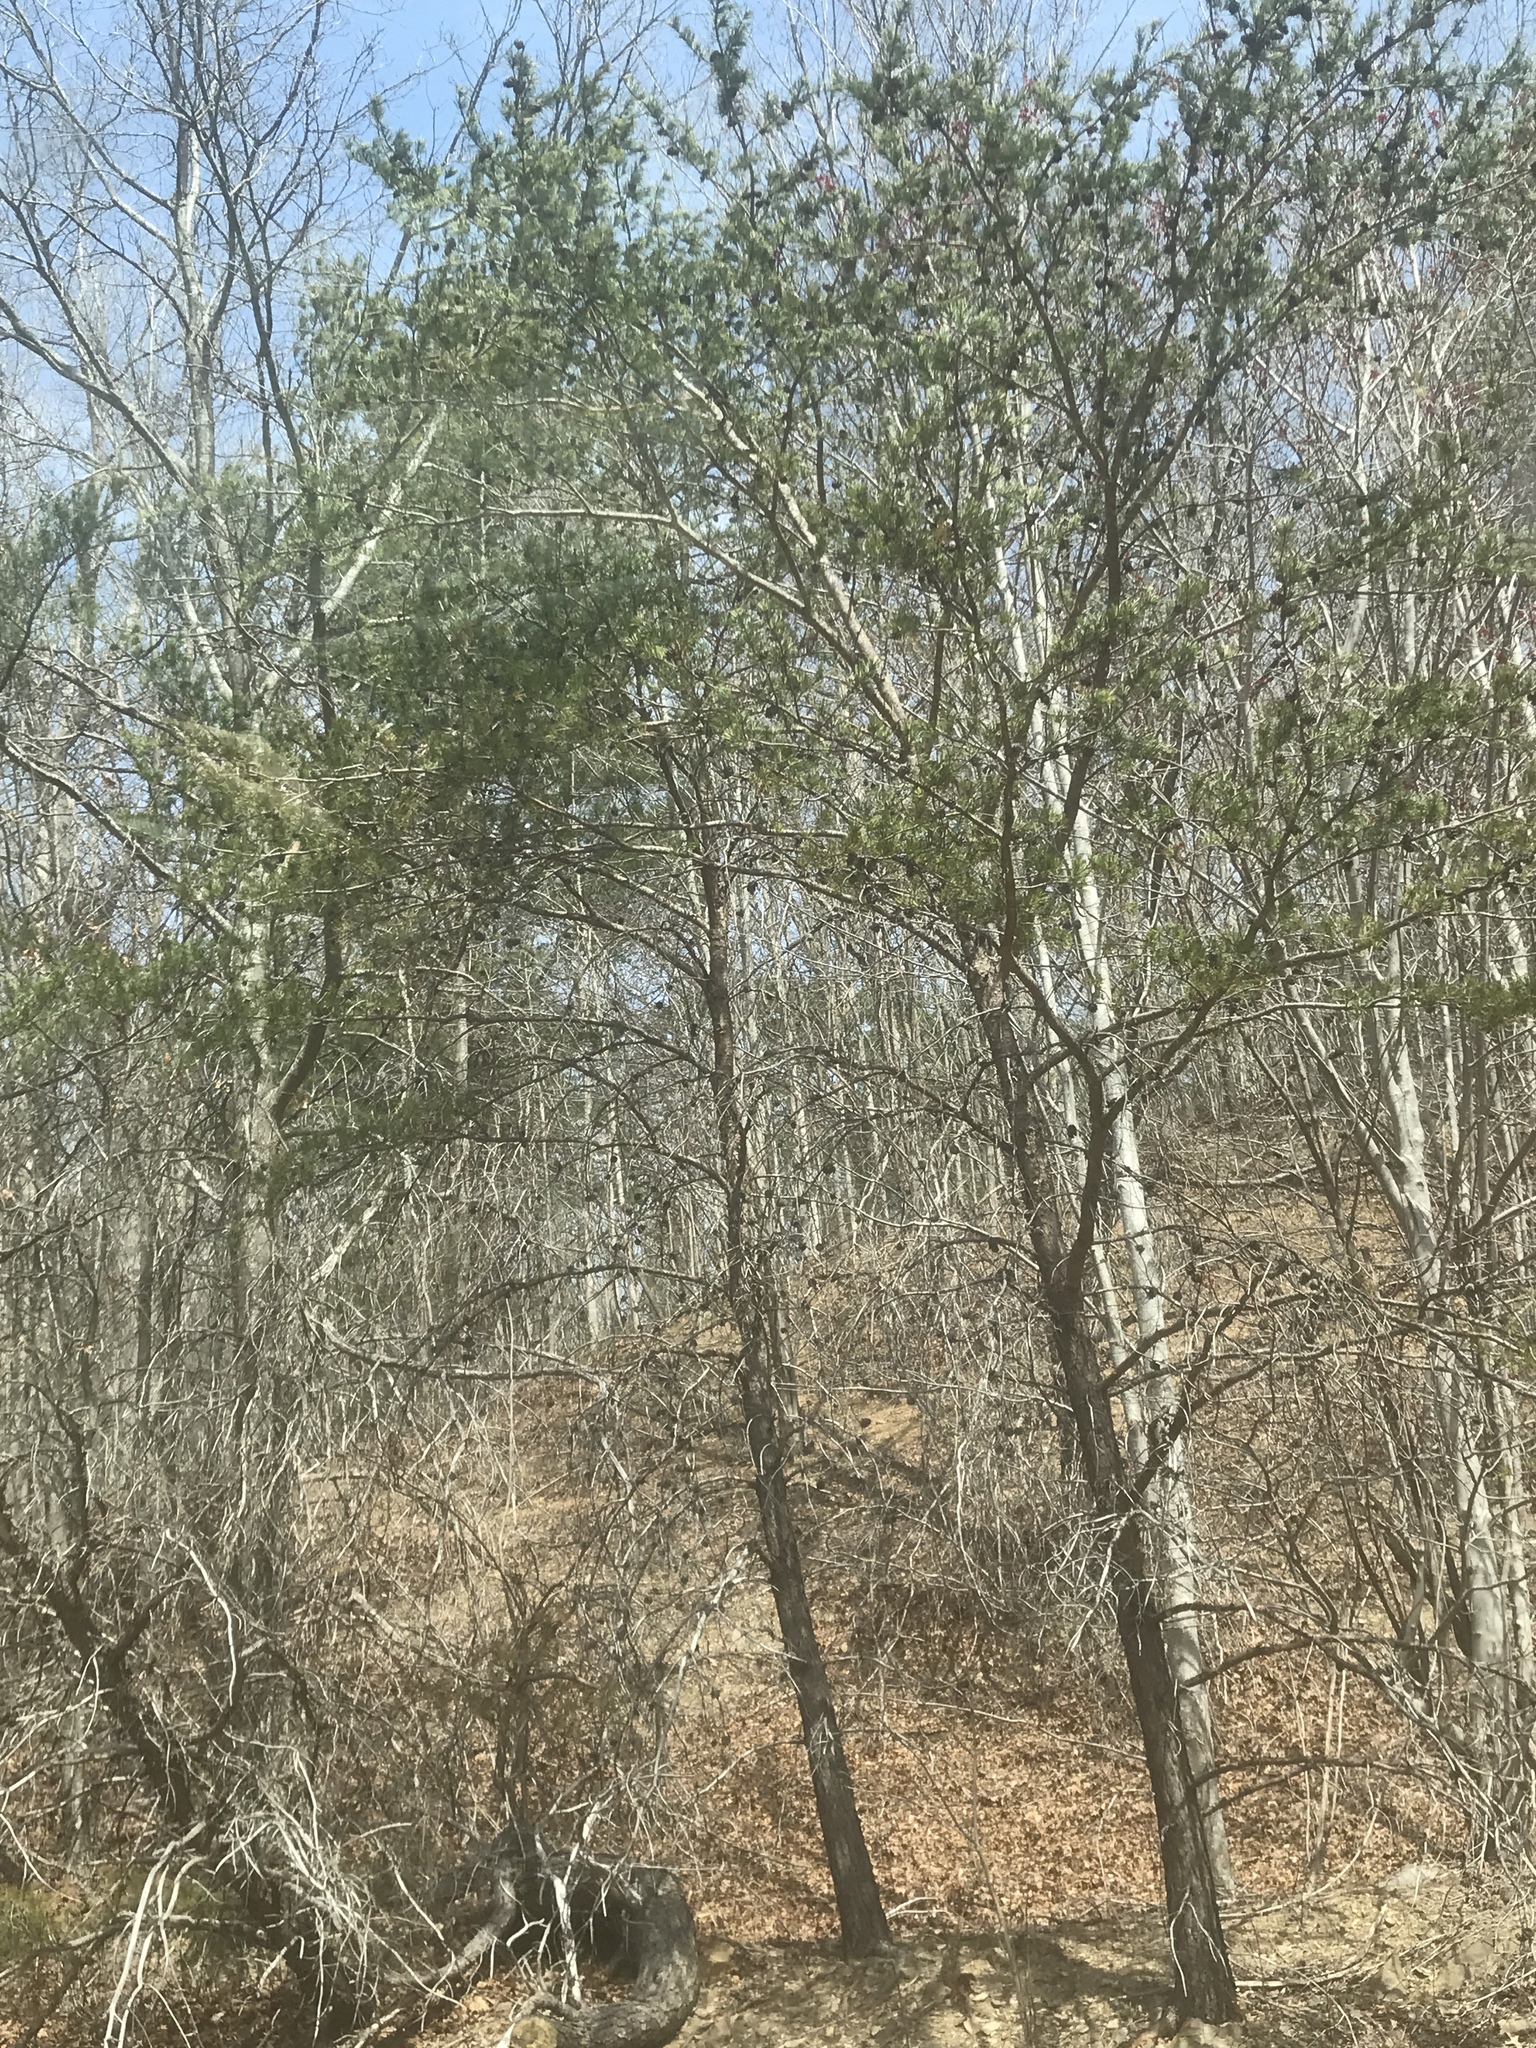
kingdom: Plantae
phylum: Tracheophyta
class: Pinopsida
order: Pinales
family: Pinaceae
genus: Pinus
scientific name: Pinus virginiana
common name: Scrub pine
